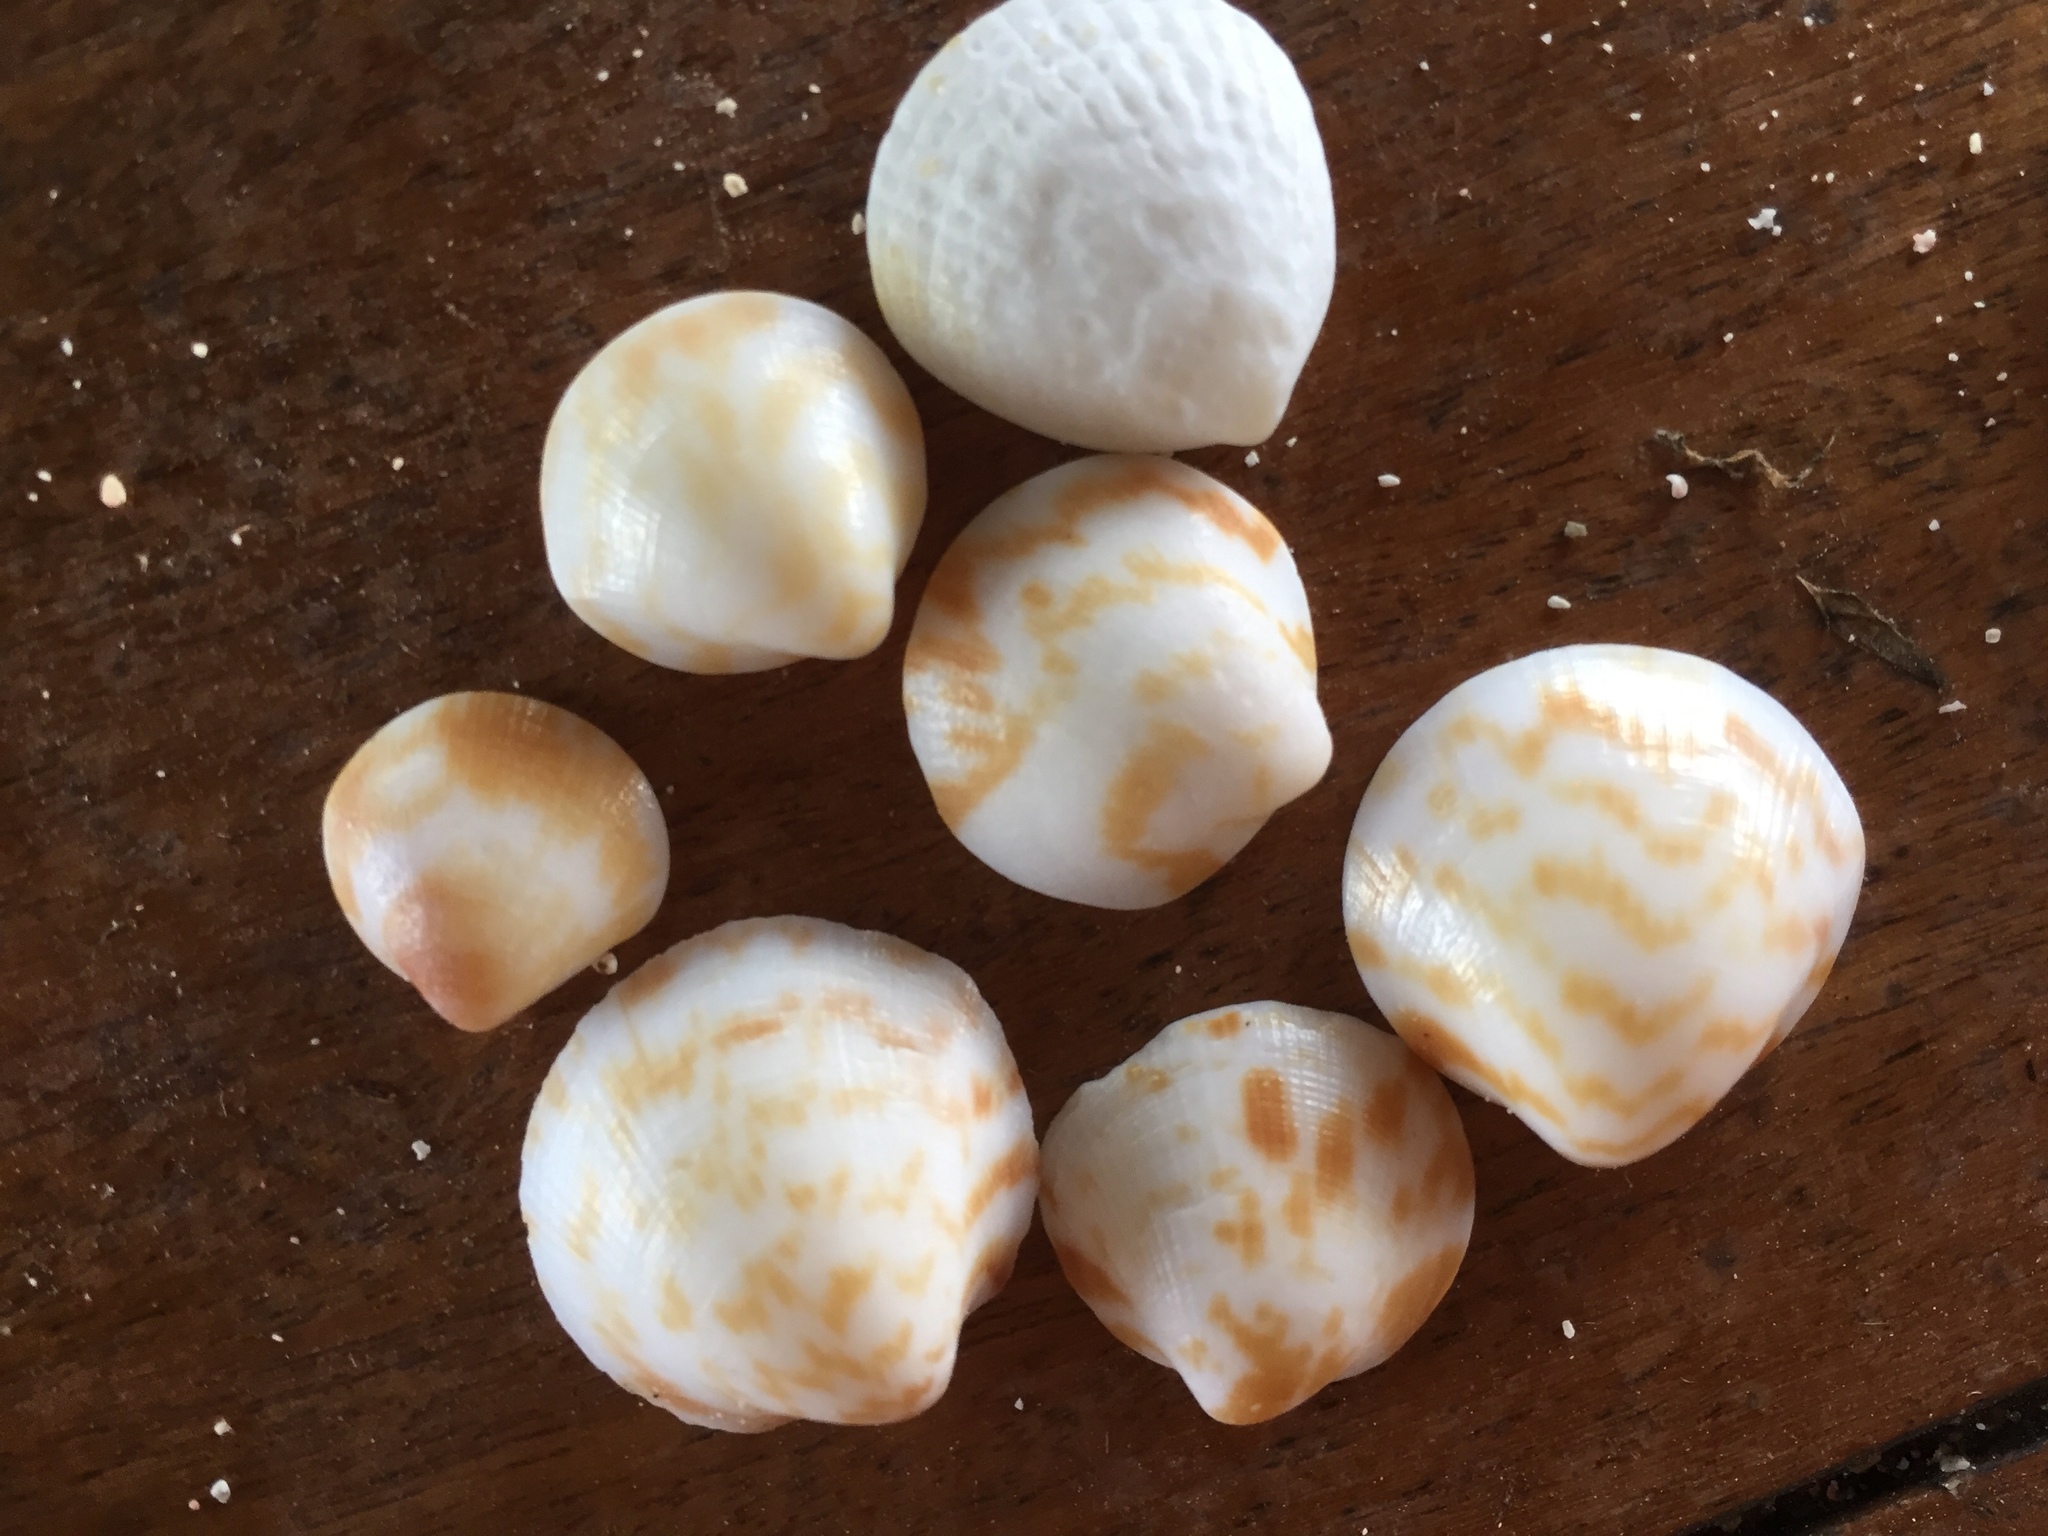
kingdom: Animalia
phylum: Mollusca
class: Bivalvia
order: Arcida
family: Glycymerididae
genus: Glycymeris
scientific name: Glycymeris americana
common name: American bittersweet
